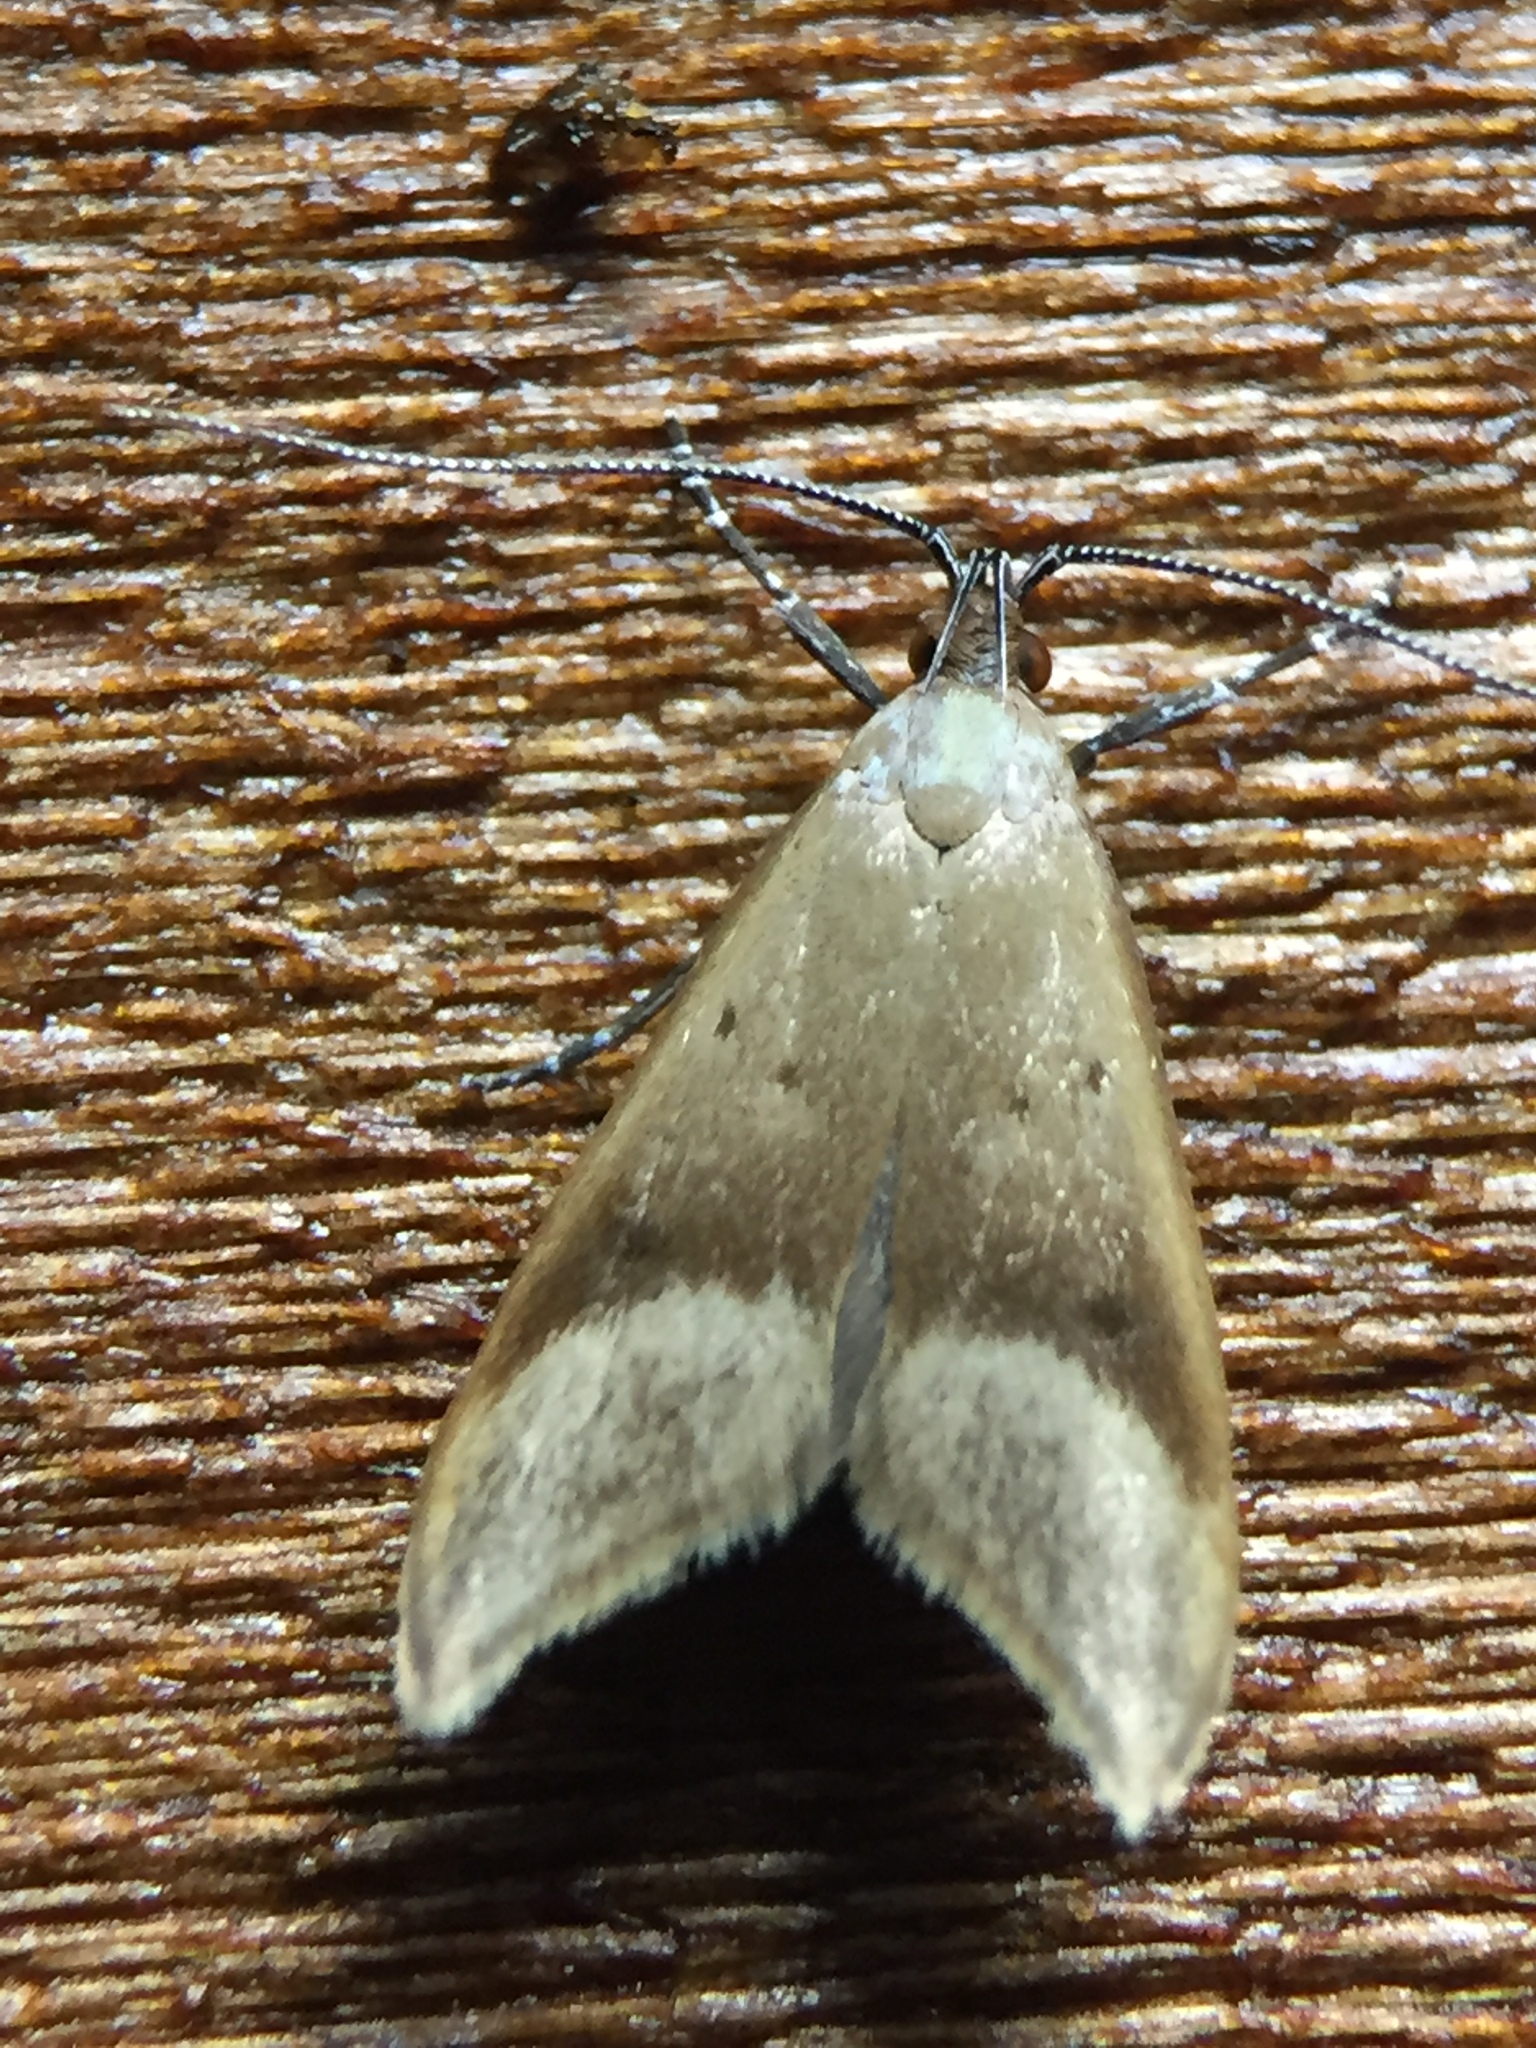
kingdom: Animalia
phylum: Arthropoda
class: Insecta
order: Lepidoptera
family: Oecophoridae
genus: Gymnobathra
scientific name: Gymnobathra hyetodes
